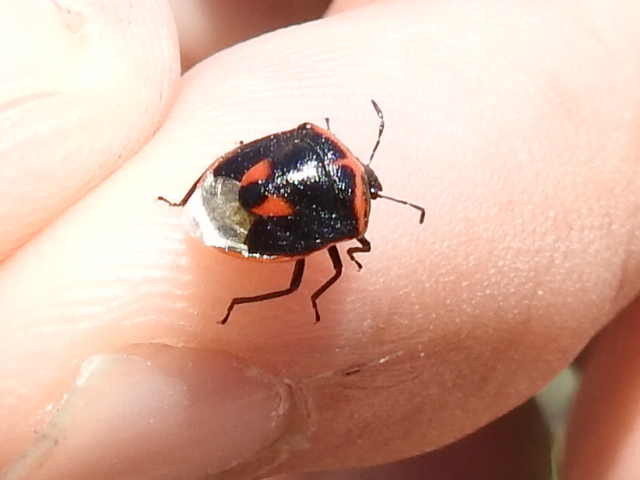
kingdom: Animalia
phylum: Arthropoda
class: Insecta
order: Hemiptera
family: Pentatomidae
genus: Cosmopepla
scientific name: Cosmopepla lintneriana
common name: Twice-stabbed stink bug
